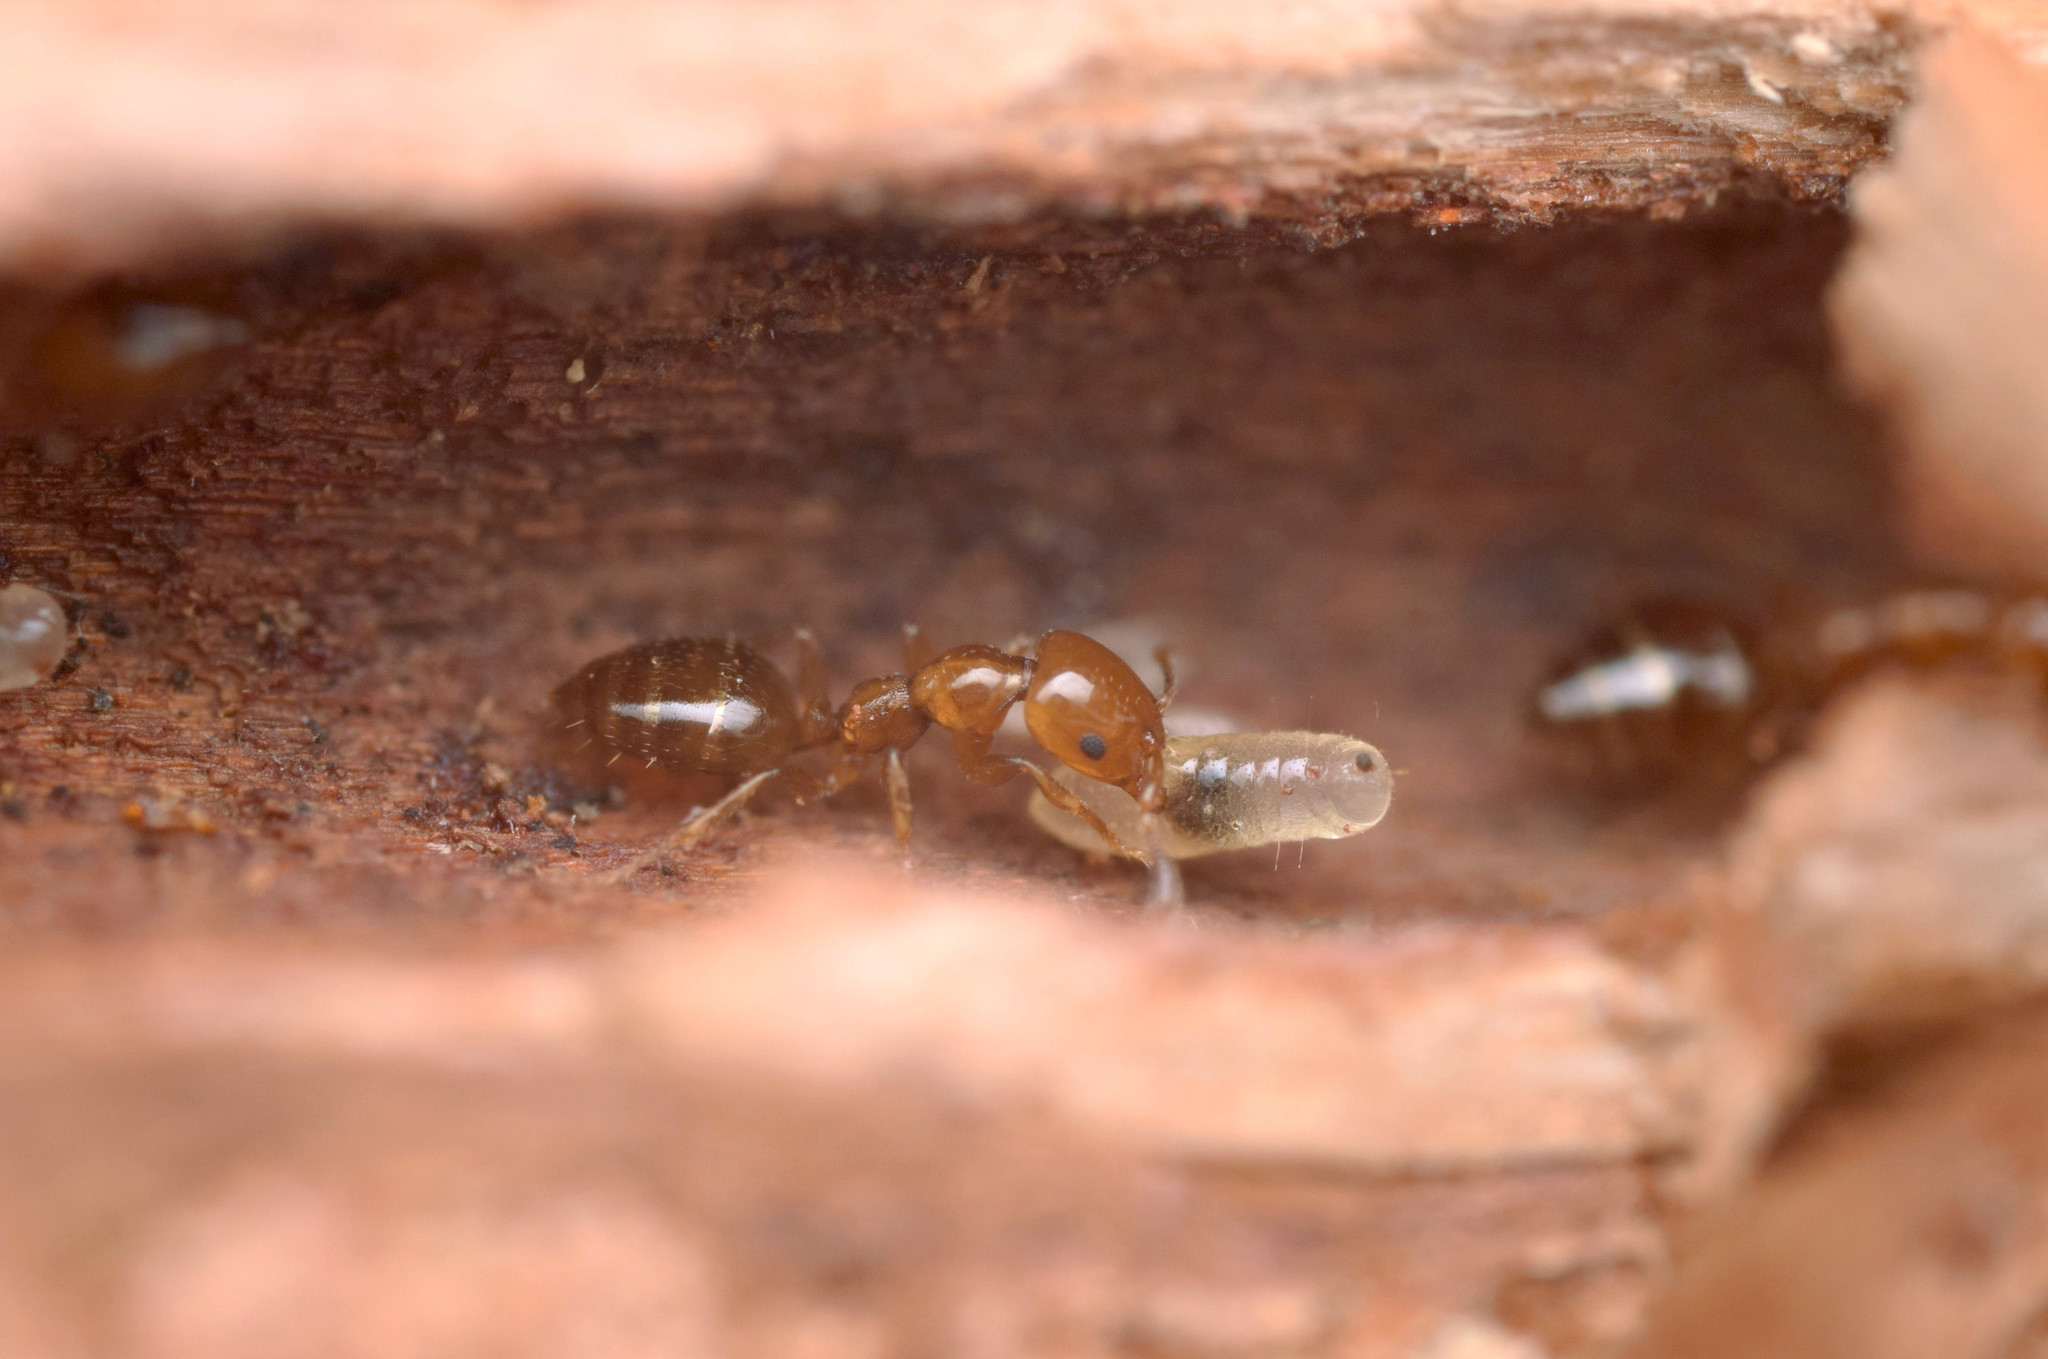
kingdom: Animalia
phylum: Arthropoda
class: Insecta
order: Hymenoptera
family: Formicidae
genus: Myrmelachista
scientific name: Myrmelachista ruszkii
